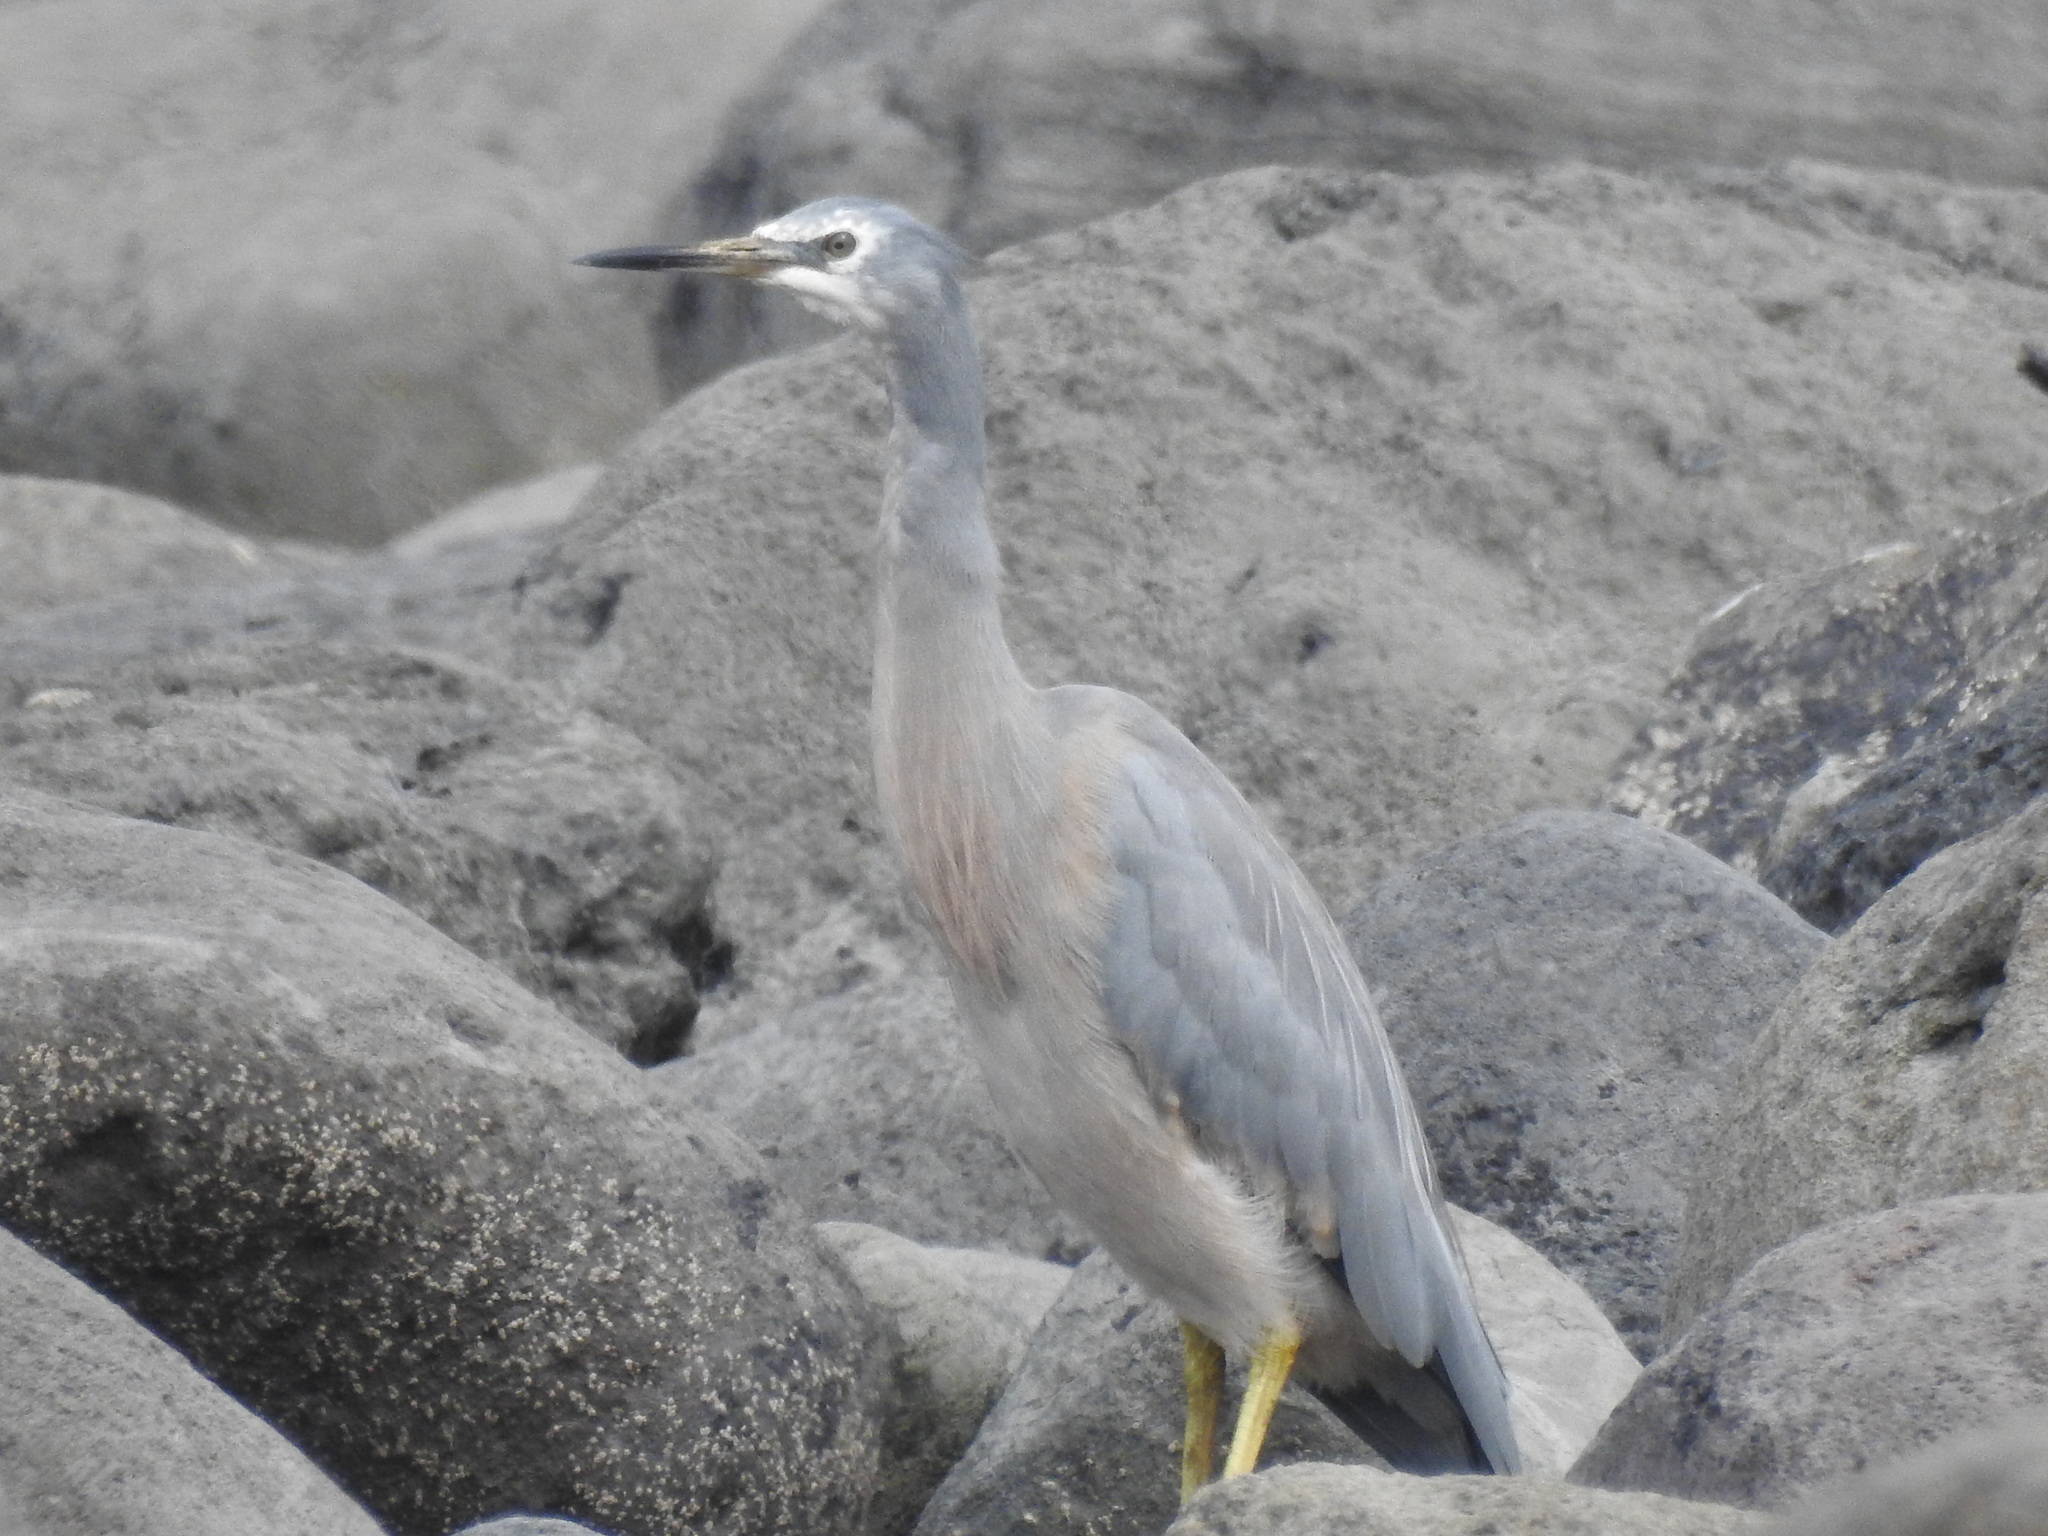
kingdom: Animalia
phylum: Chordata
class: Aves
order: Pelecaniformes
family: Ardeidae
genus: Egretta
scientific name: Egretta novaehollandiae
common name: White-faced heron
